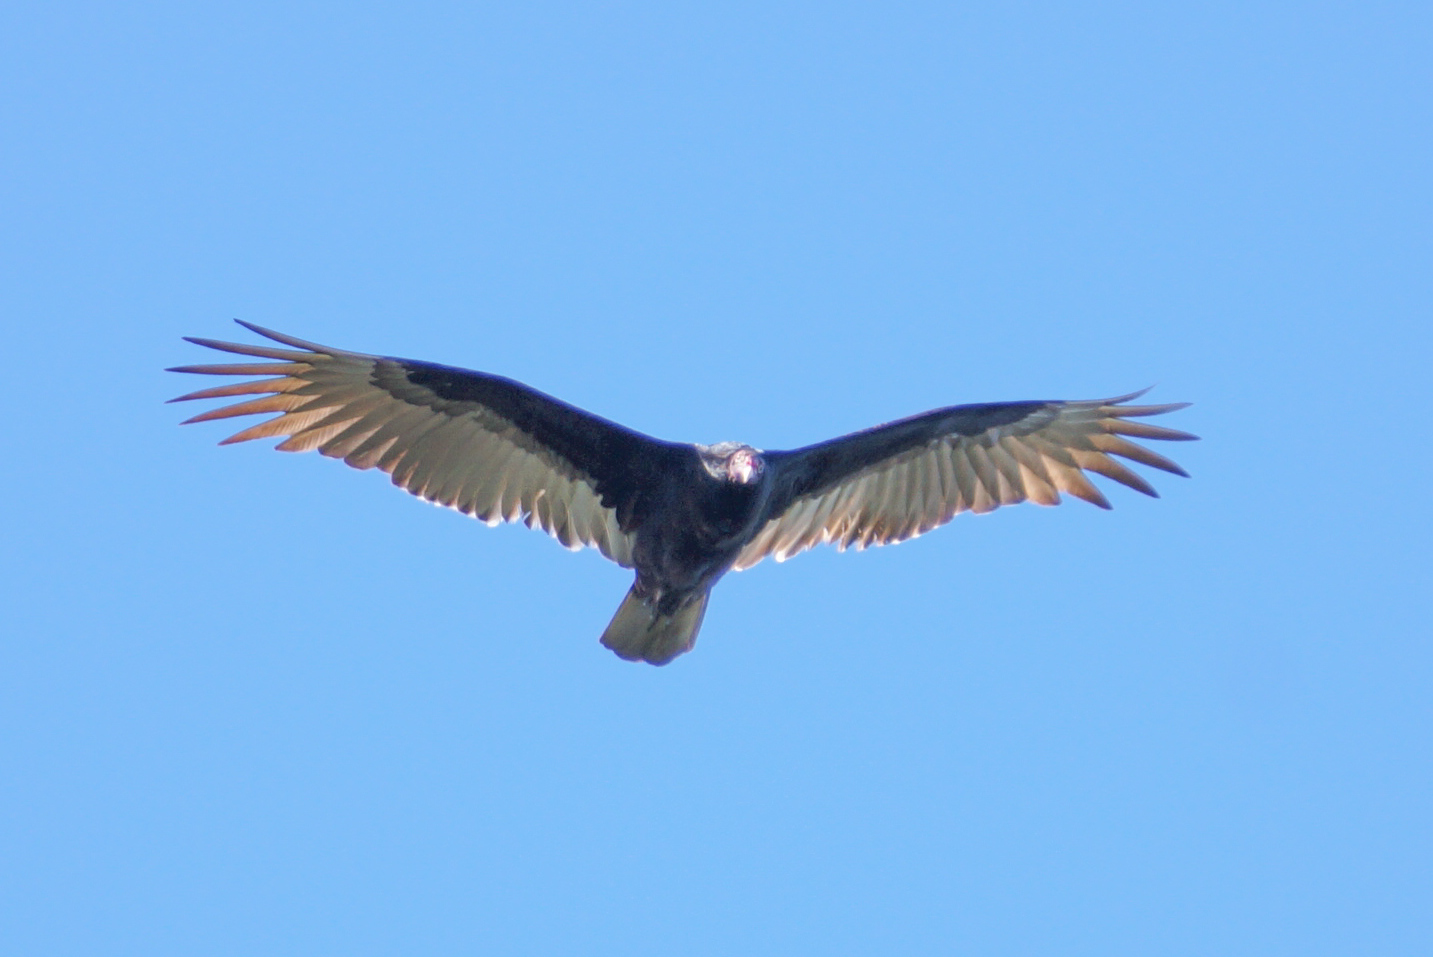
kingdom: Animalia
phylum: Chordata
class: Aves
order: Accipitriformes
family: Cathartidae
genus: Cathartes
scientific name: Cathartes aura
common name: Turkey vulture
